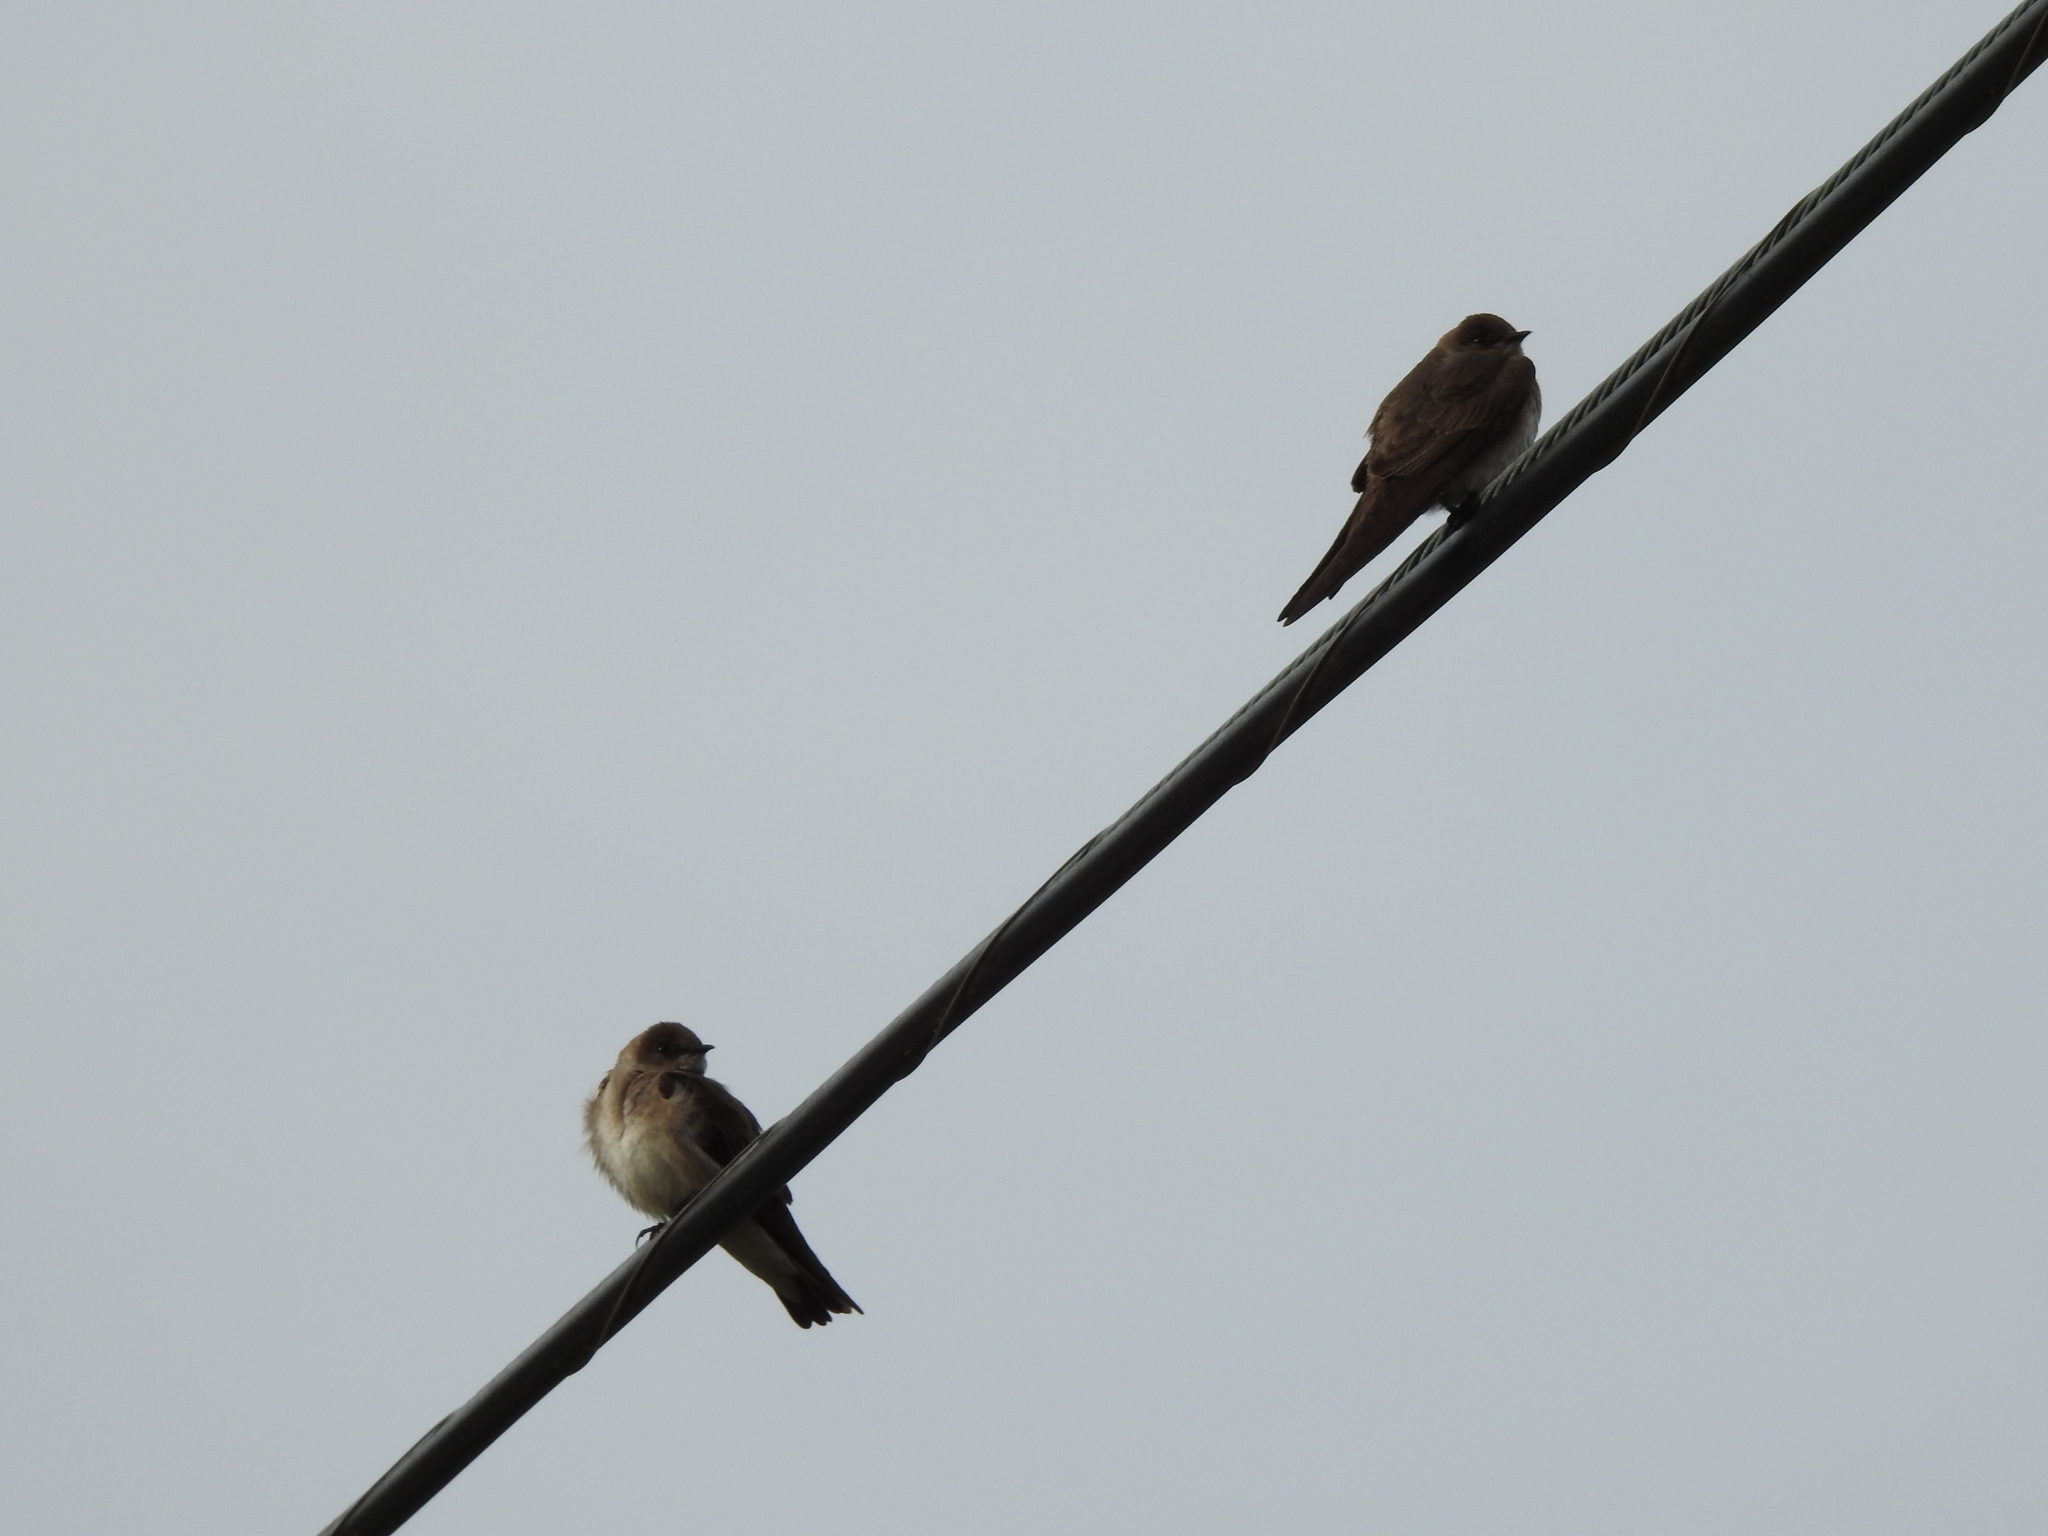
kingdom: Animalia
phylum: Chordata
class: Aves
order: Passeriformes
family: Hirundinidae
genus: Stelgidopteryx
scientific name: Stelgidopteryx serripennis
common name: Northern rough-winged swallow
